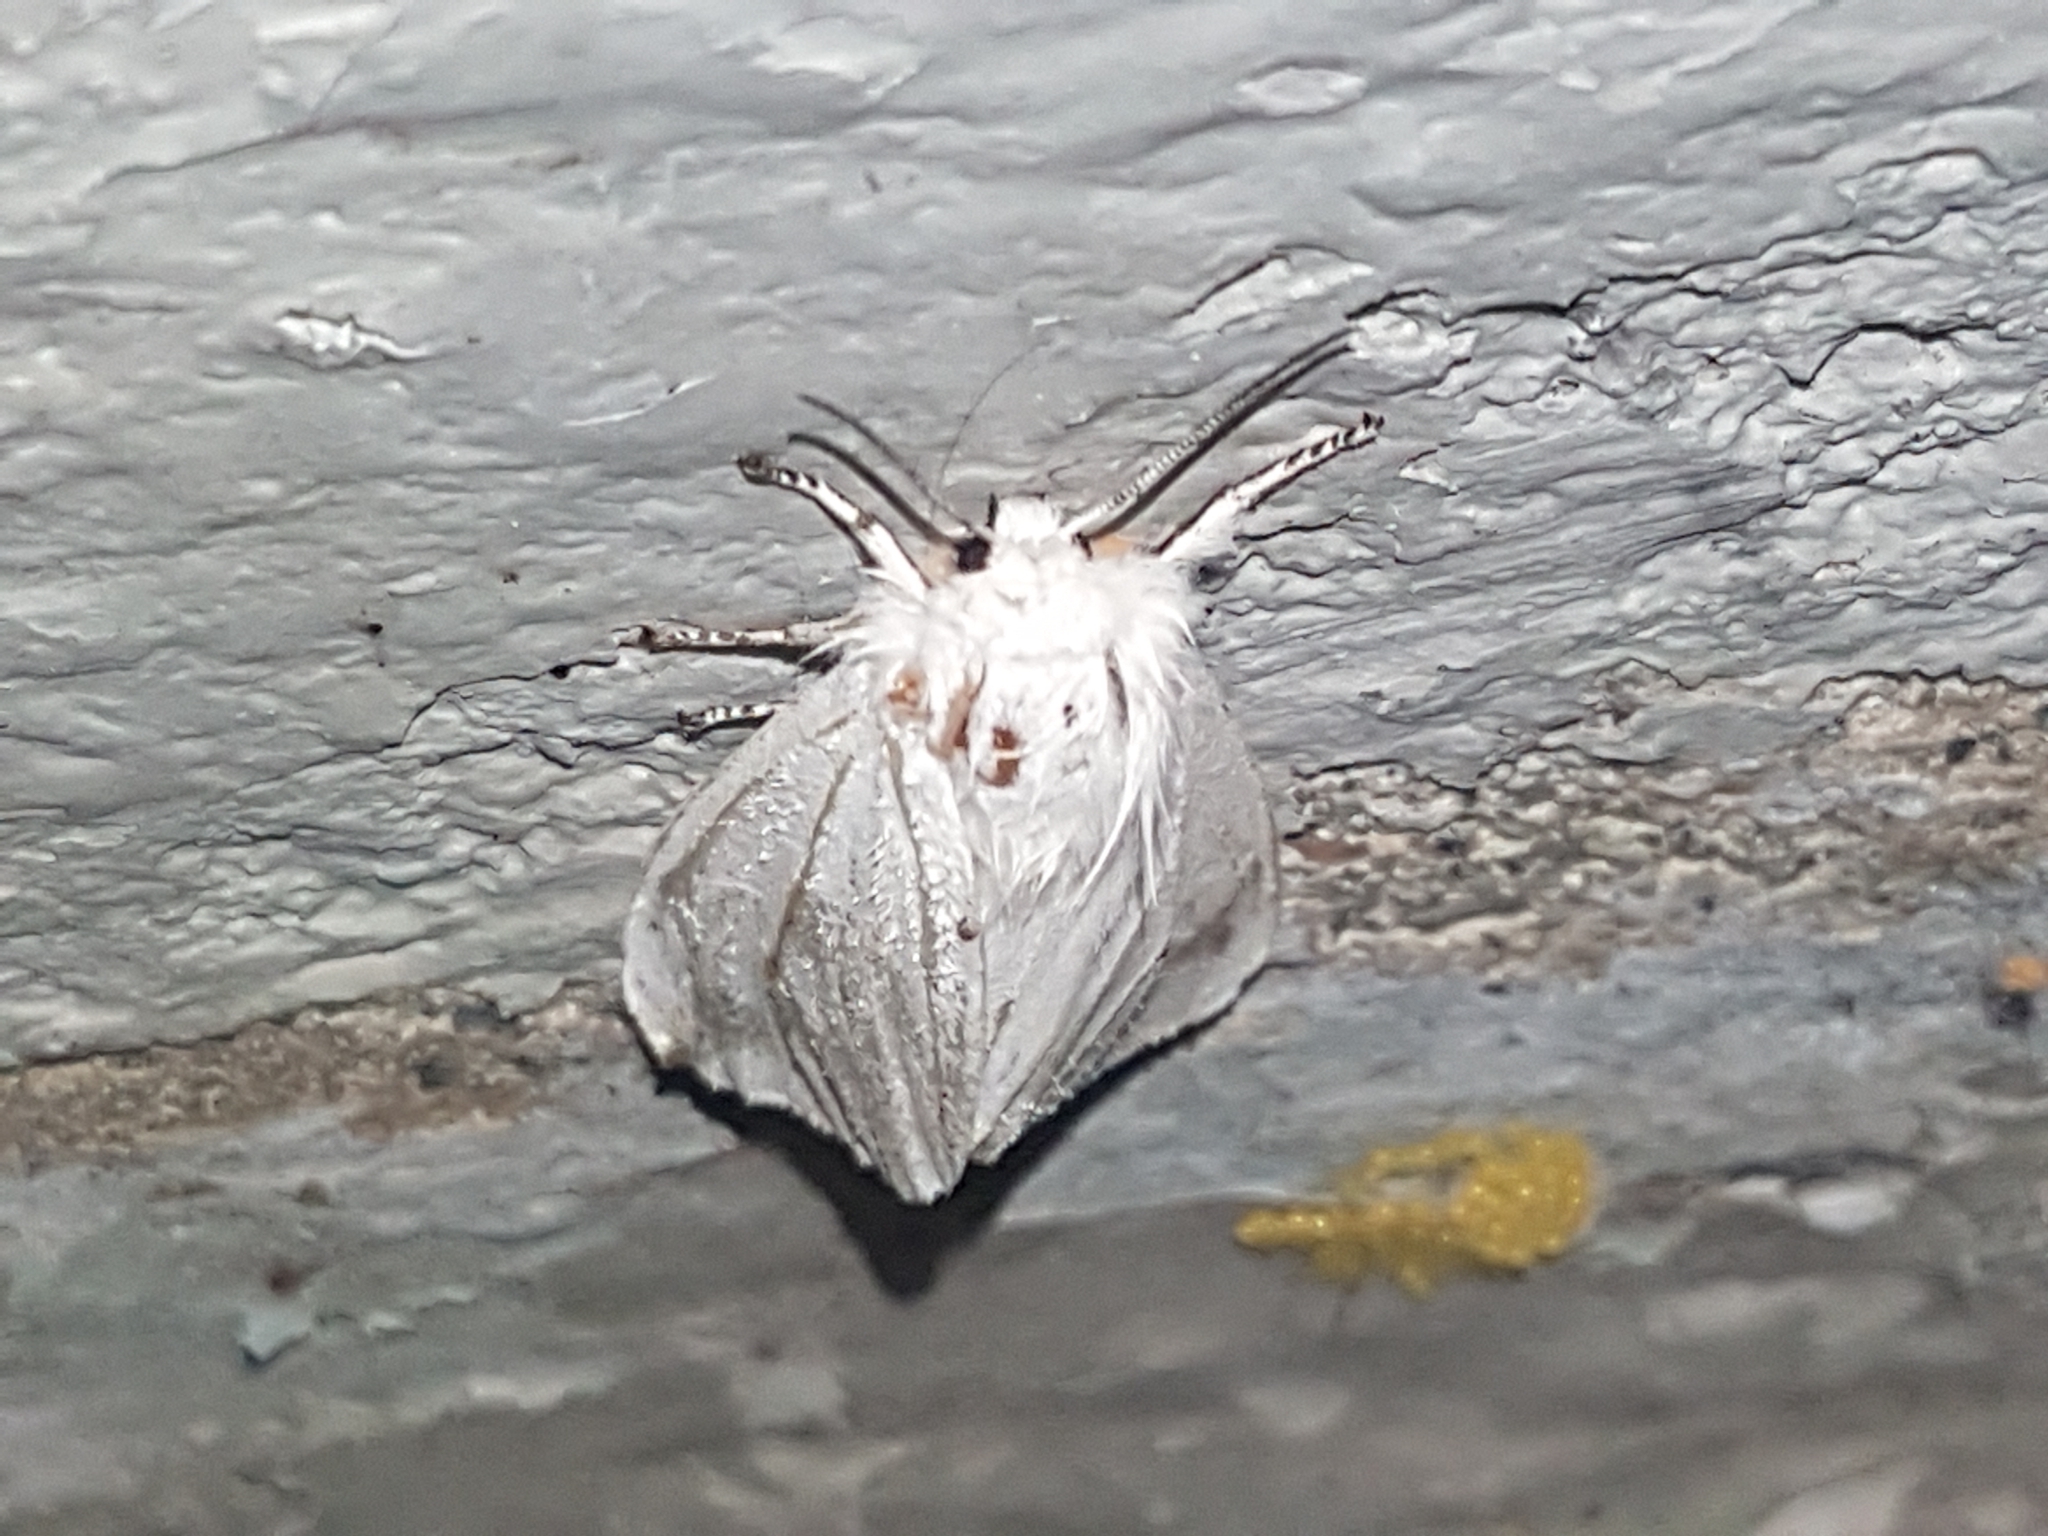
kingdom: Animalia
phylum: Arthropoda
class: Insecta
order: Lepidoptera
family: Erebidae
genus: Spilosoma
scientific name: Spilosoma virginica
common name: Virginia tiger moth
